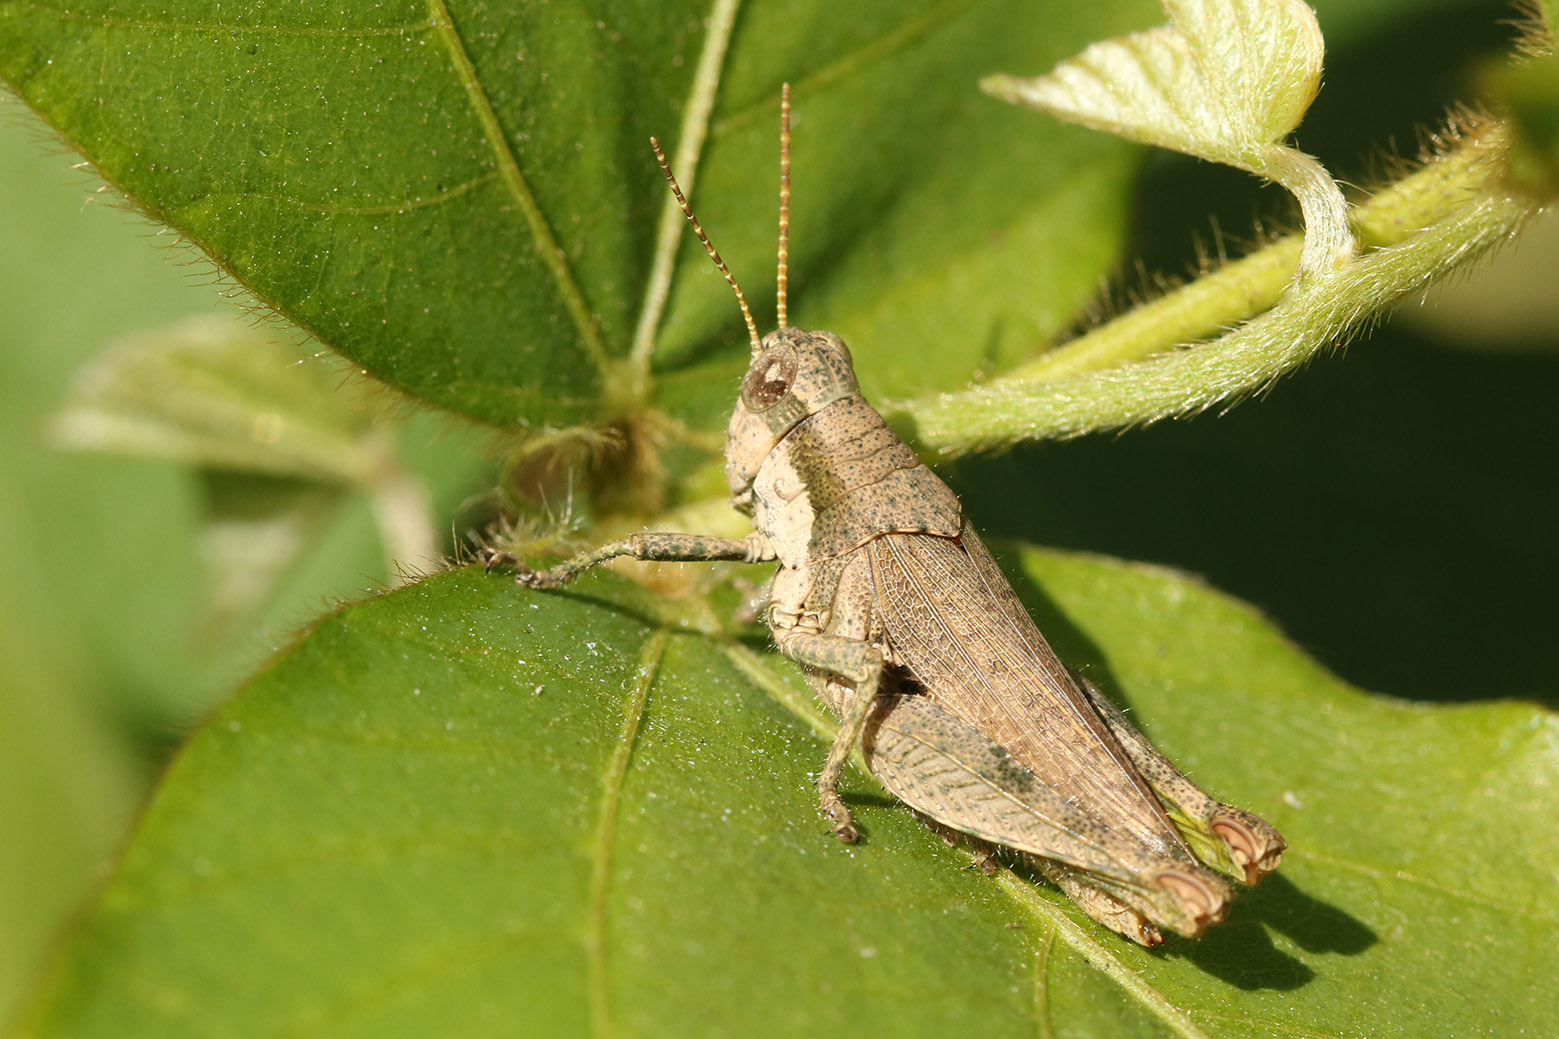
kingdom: Animalia
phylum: Arthropoda
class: Insecta
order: Orthoptera
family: Acrididae
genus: Ronderosia
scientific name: Ronderosia bergii
